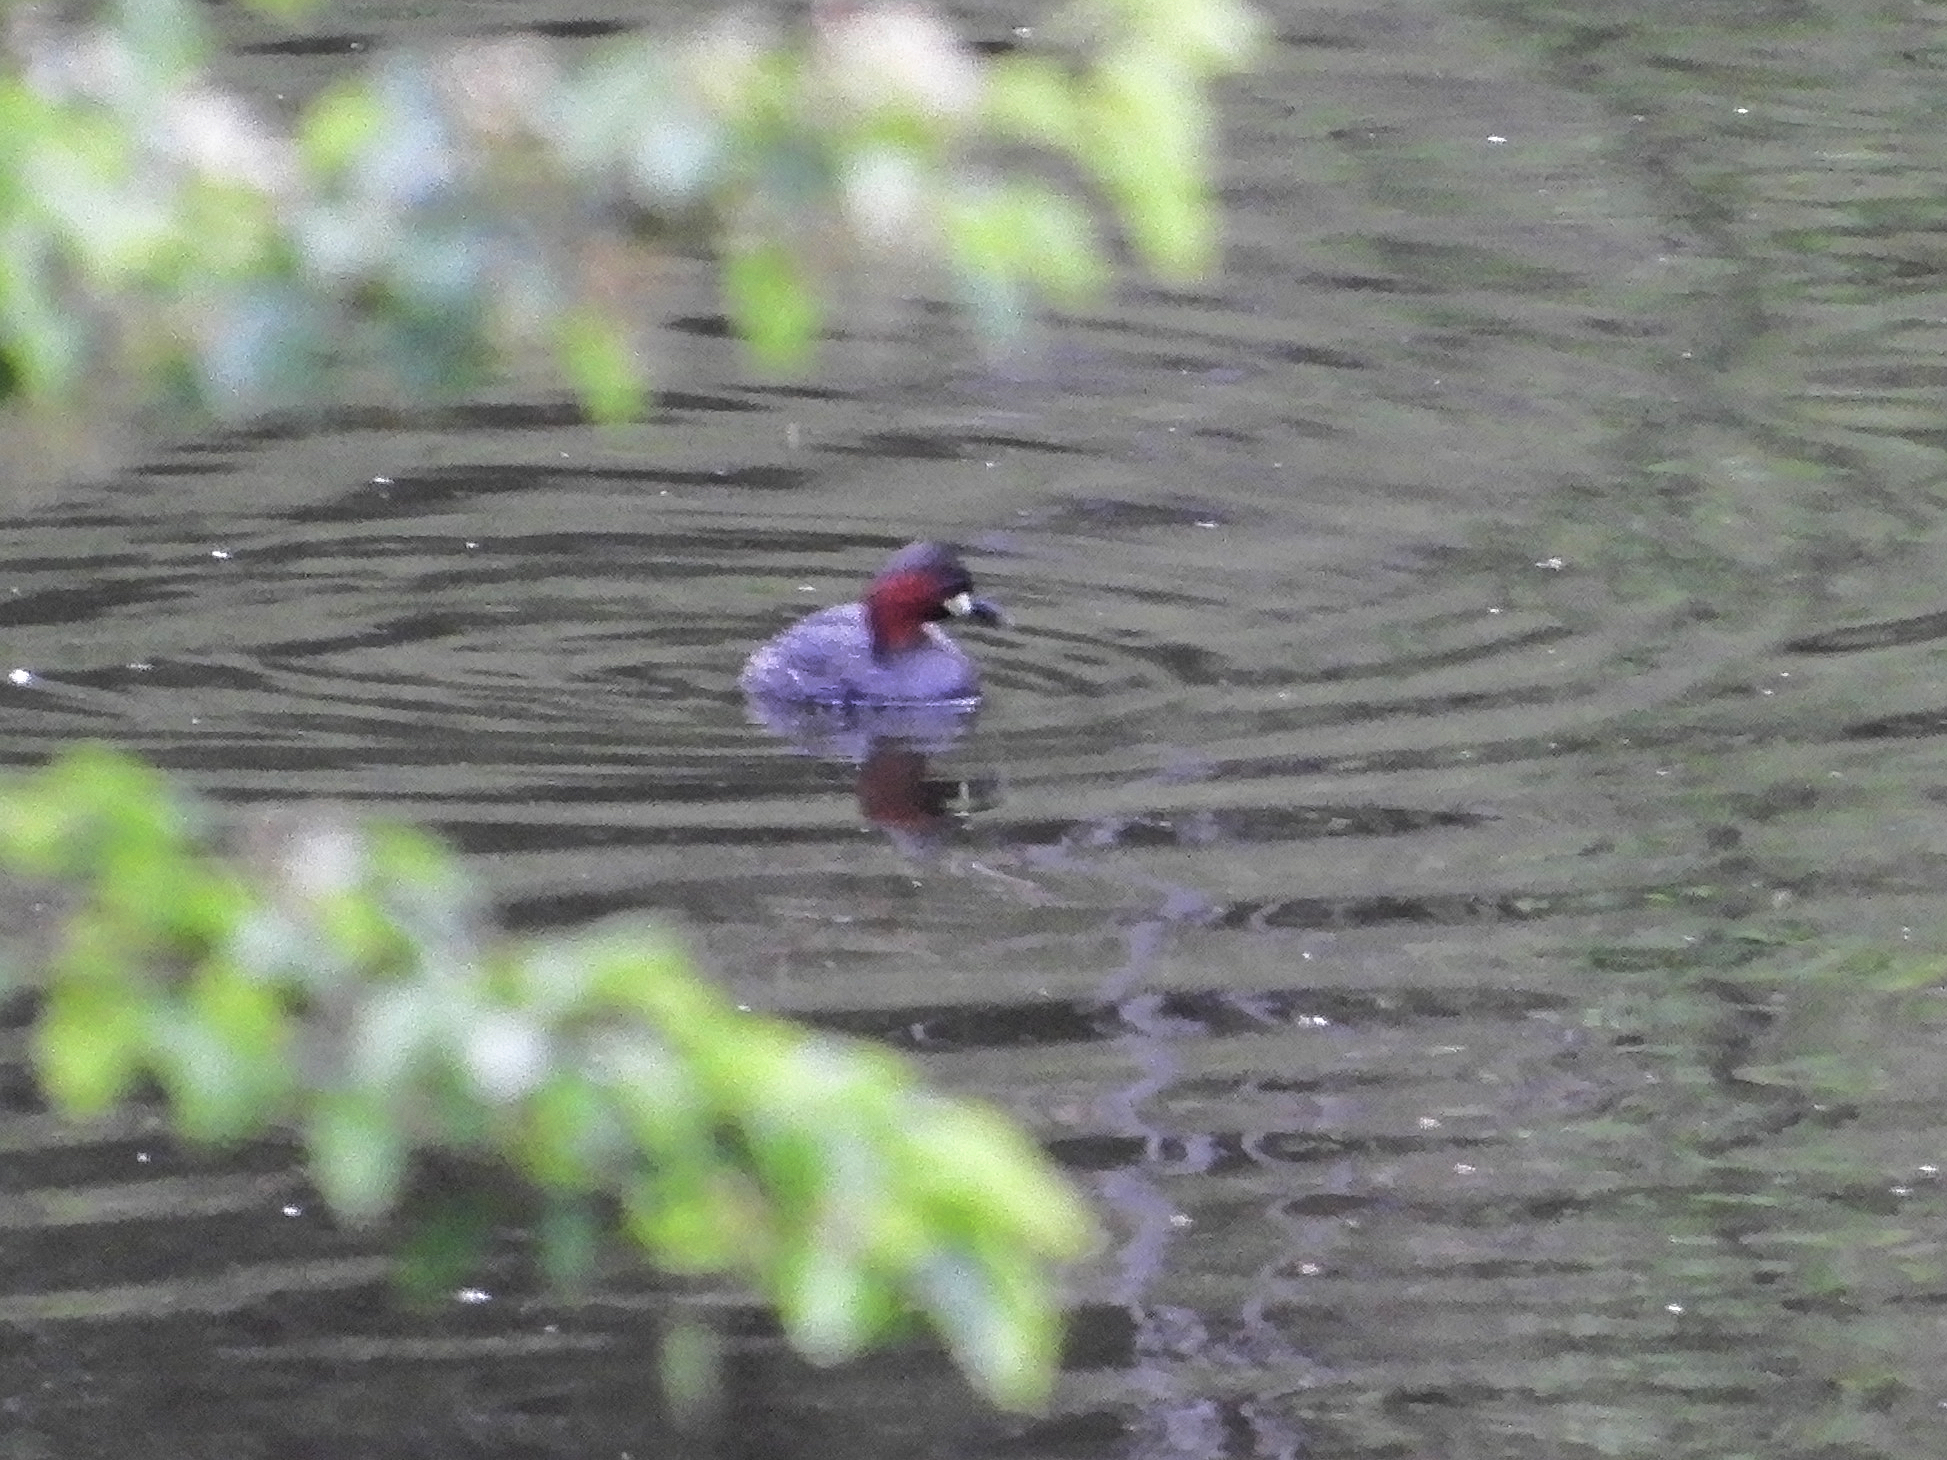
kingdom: Animalia
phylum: Chordata
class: Aves
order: Podicipediformes
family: Podicipedidae
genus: Tachybaptus
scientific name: Tachybaptus ruficollis
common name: Little grebe
